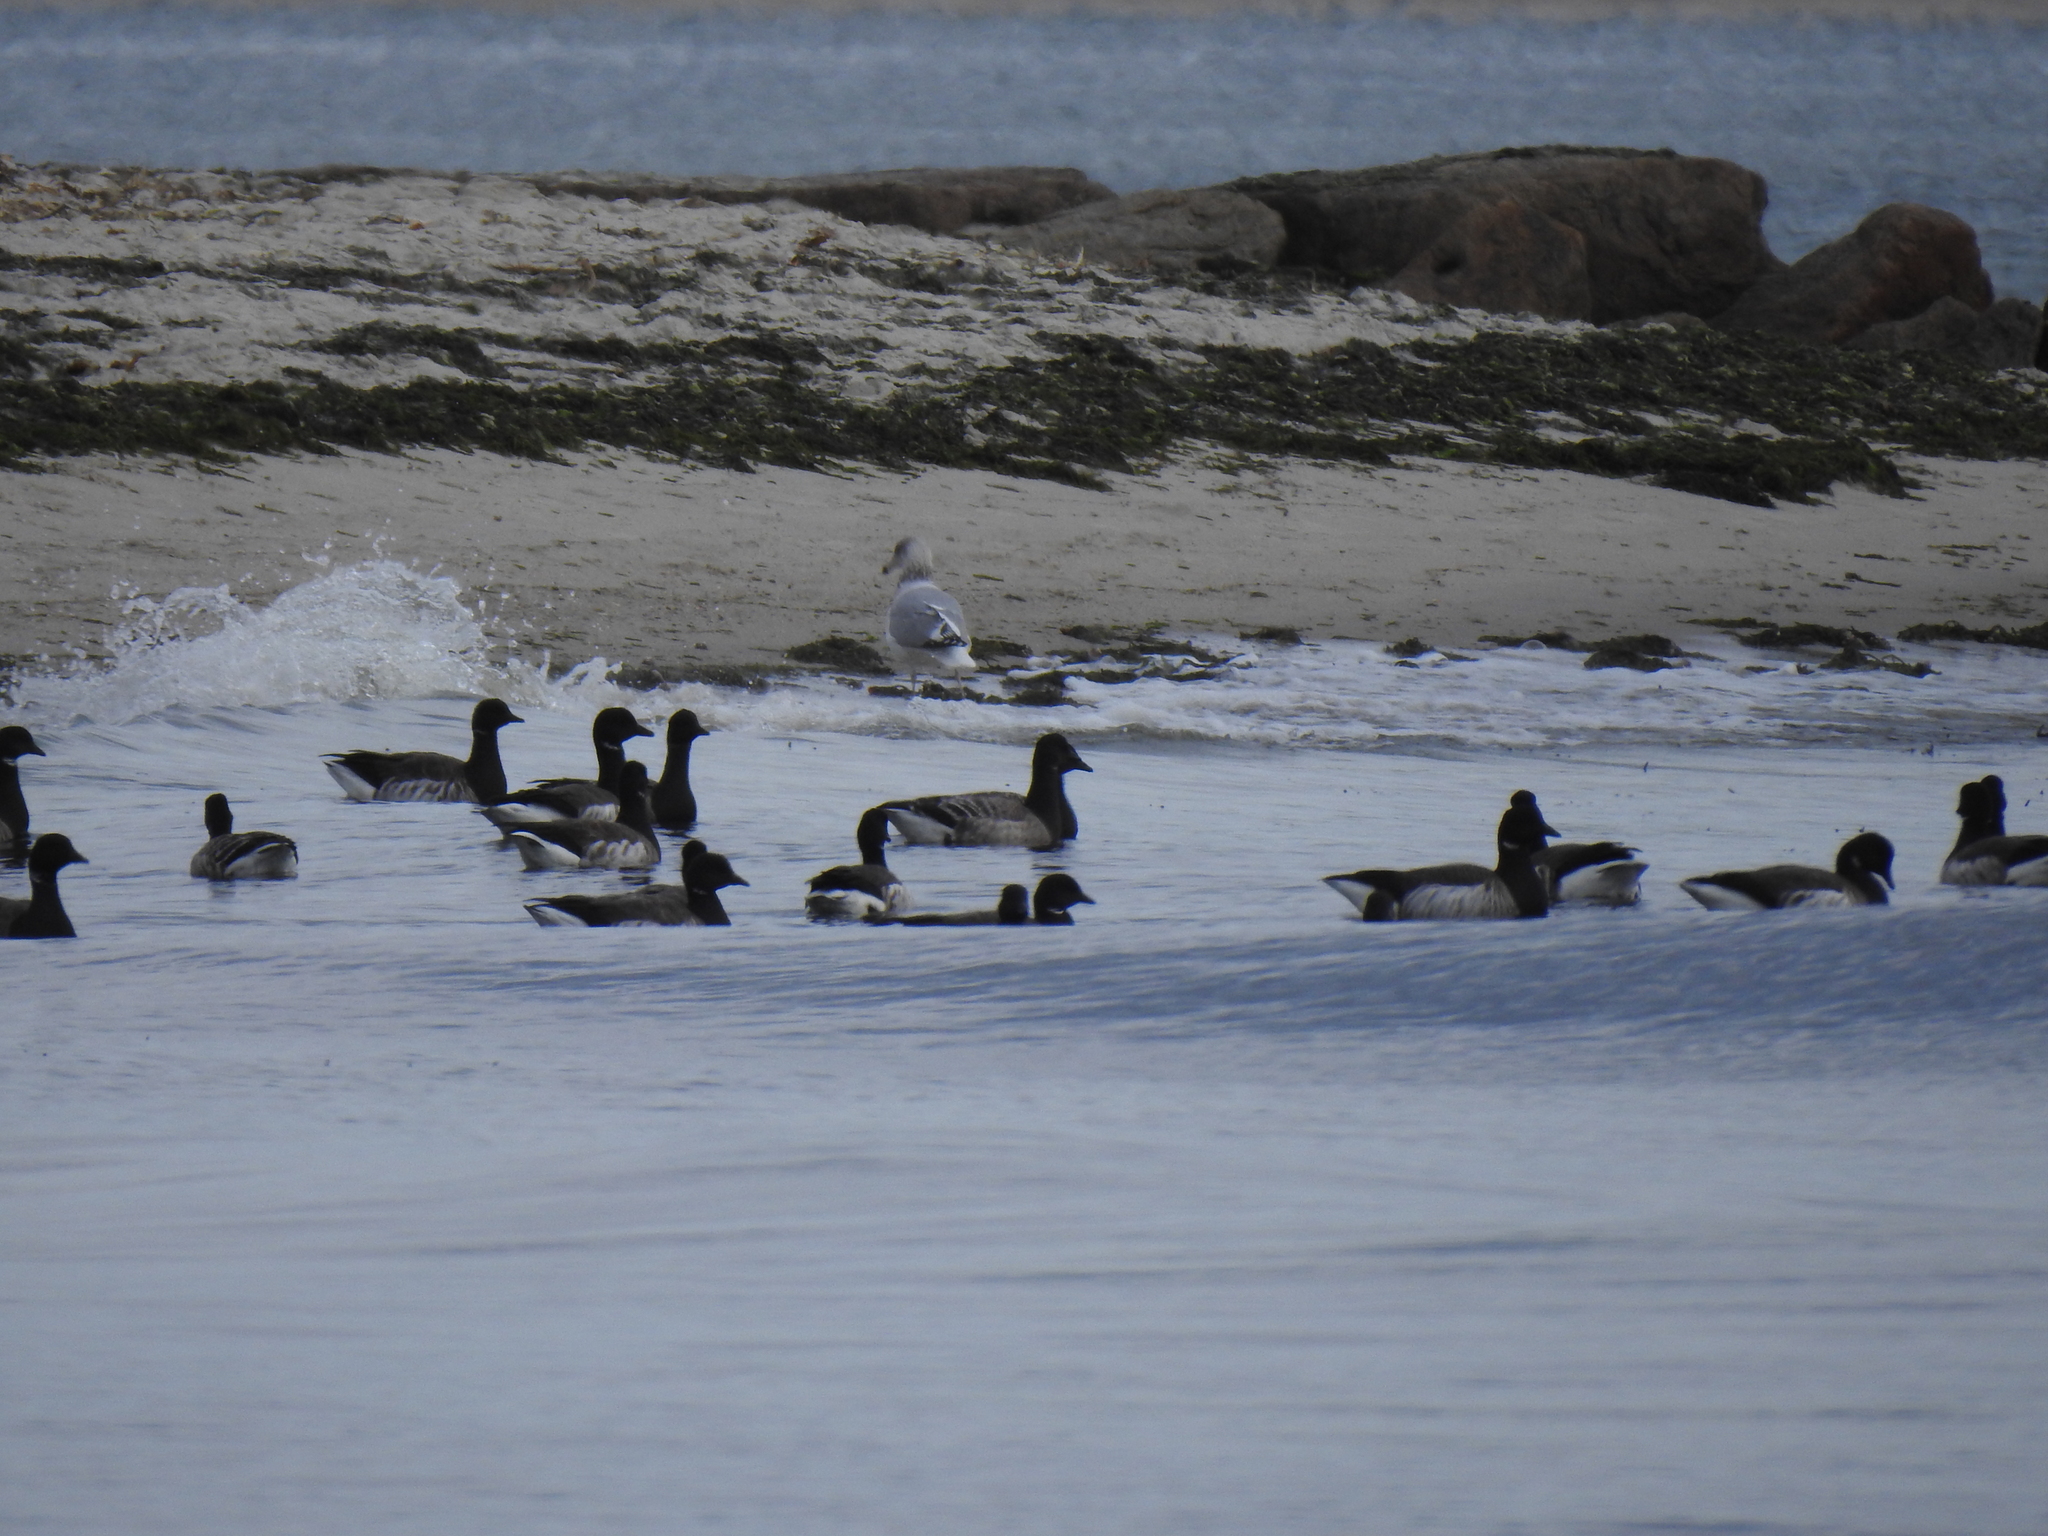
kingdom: Animalia
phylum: Chordata
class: Aves
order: Anseriformes
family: Anatidae
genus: Branta
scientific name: Branta bernicla
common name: Brant goose
